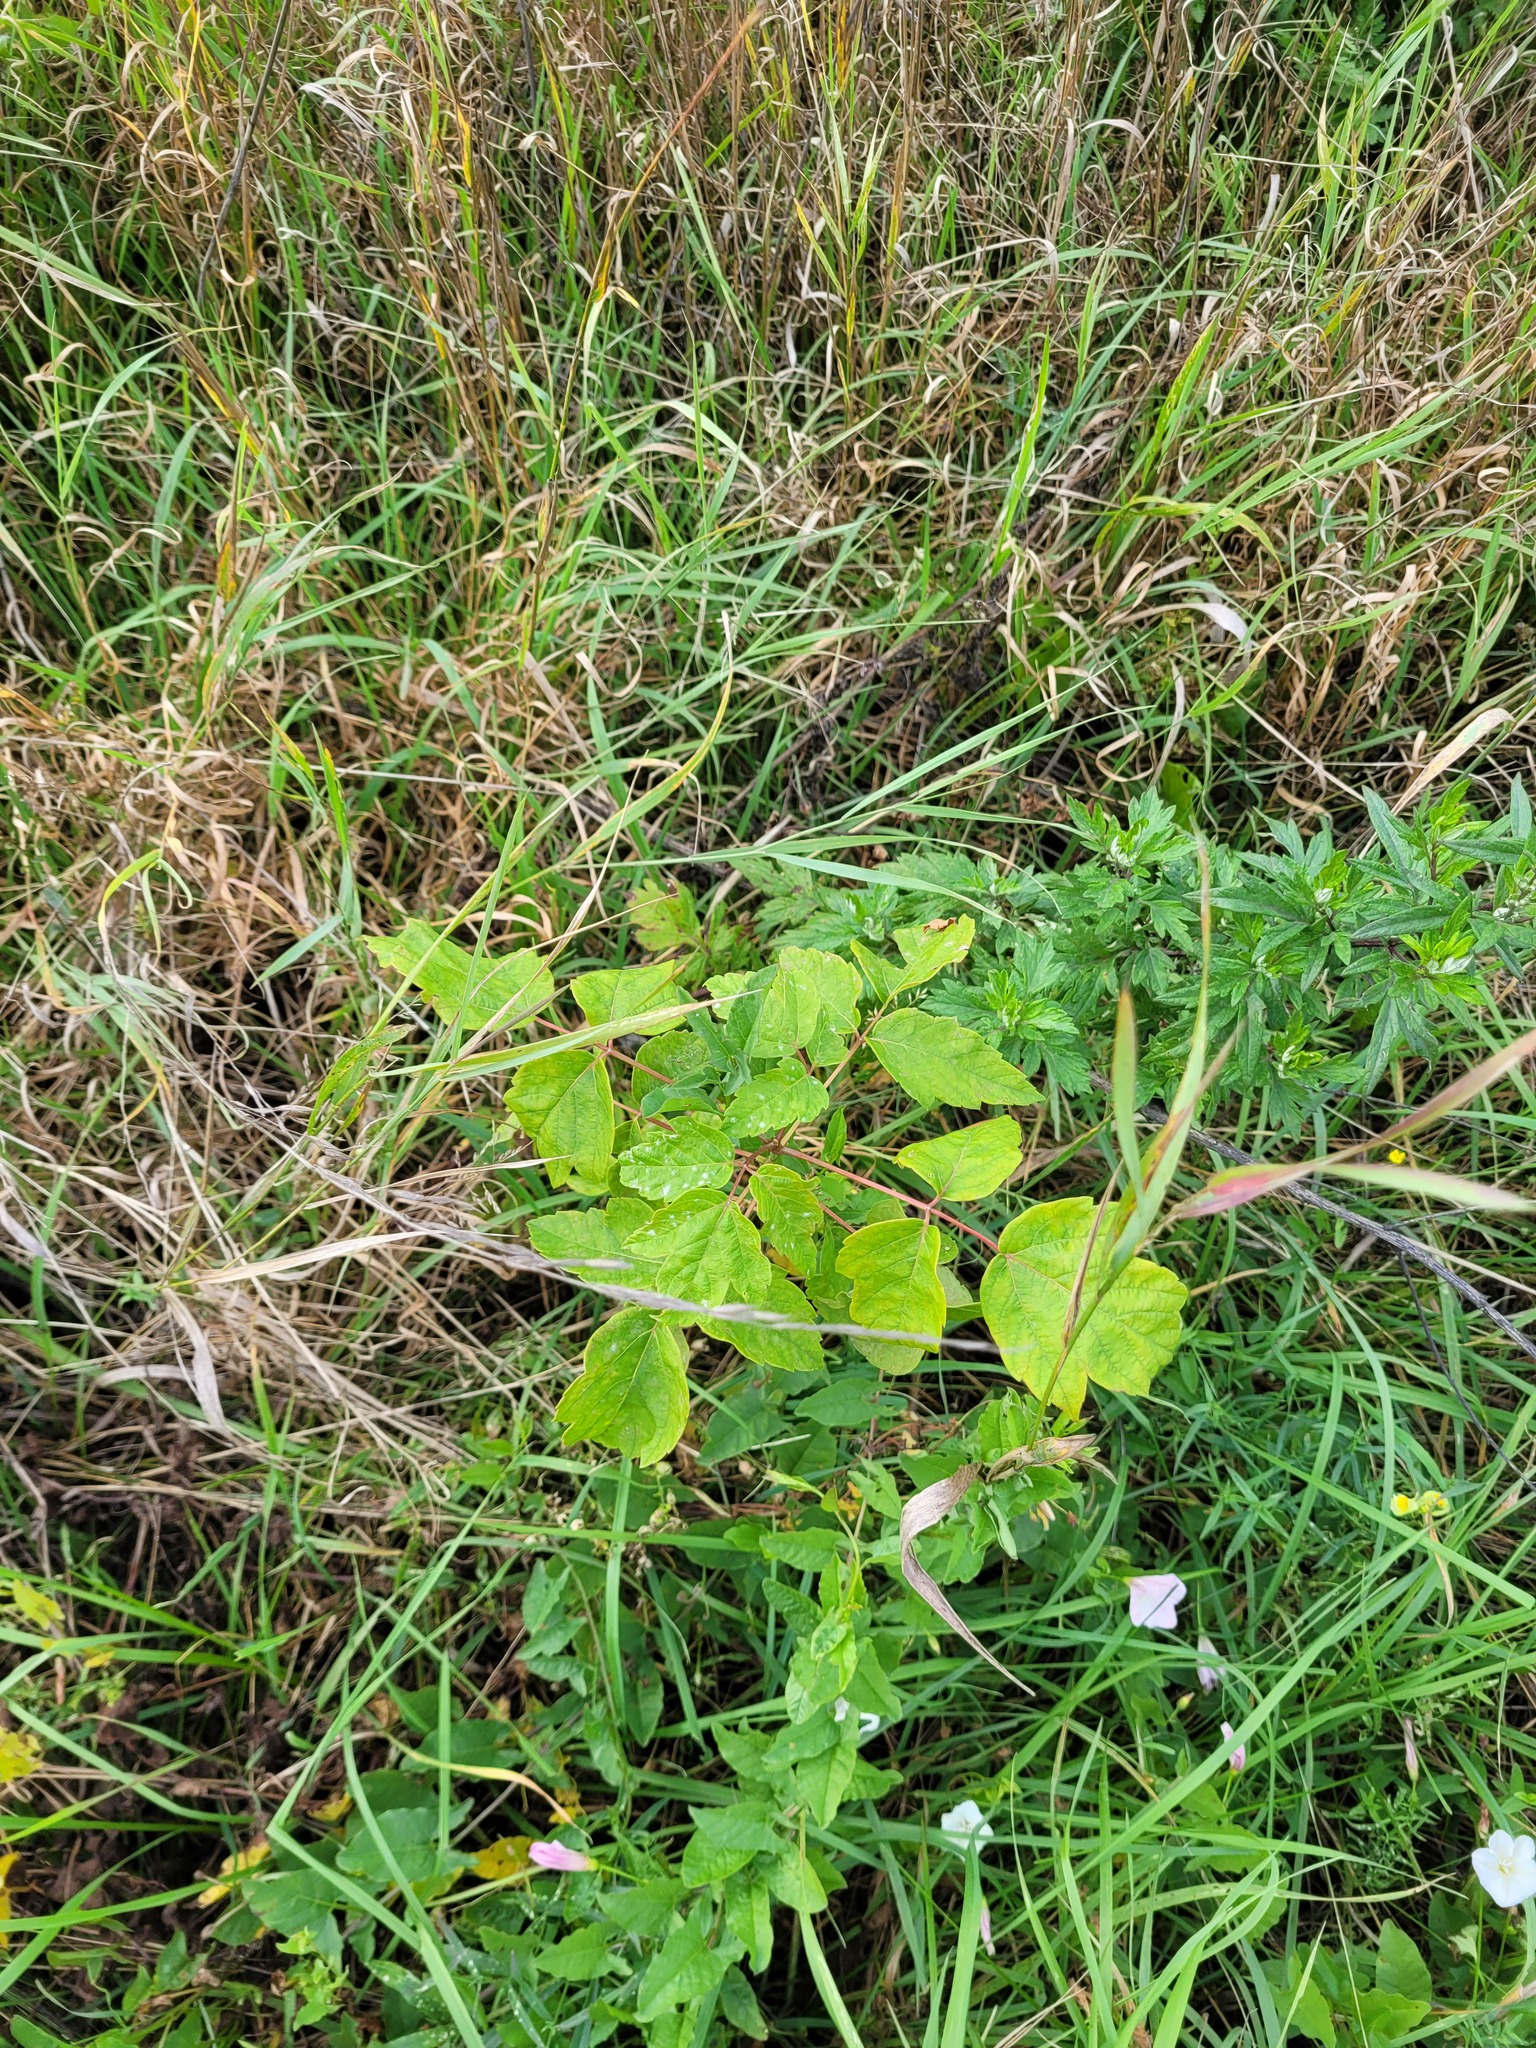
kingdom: Plantae
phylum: Tracheophyta
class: Magnoliopsida
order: Sapindales
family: Sapindaceae
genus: Acer
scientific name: Acer negundo
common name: Ashleaf maple
